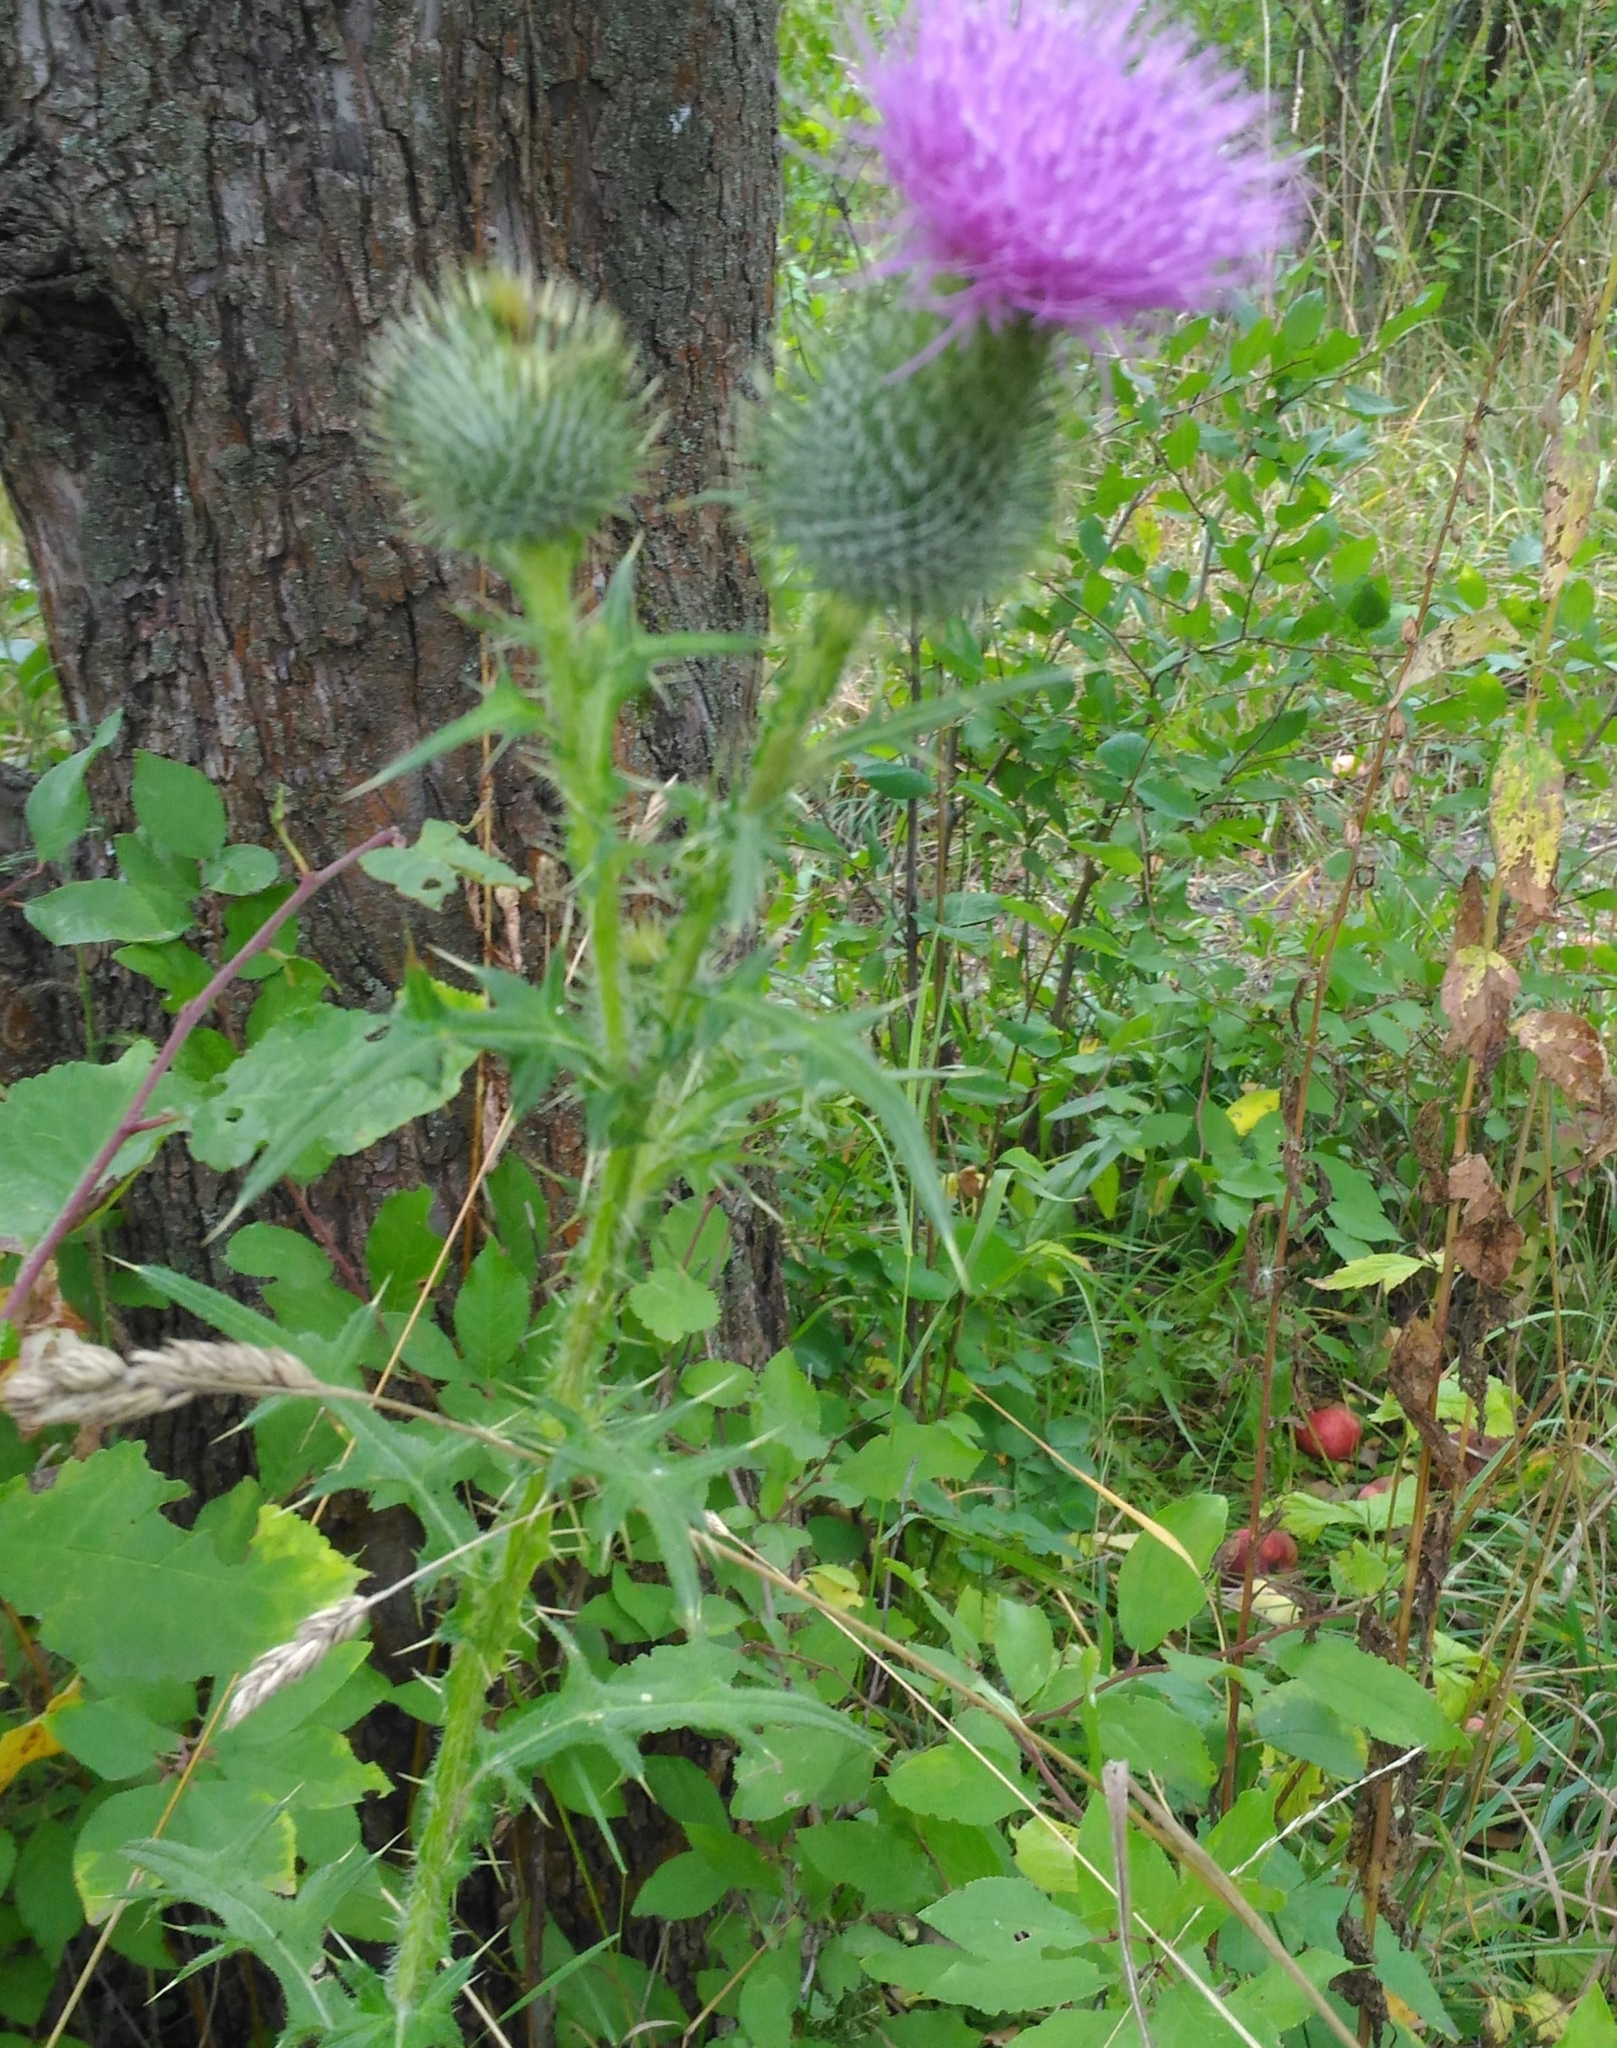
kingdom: Plantae
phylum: Tracheophyta
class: Magnoliopsida
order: Asterales
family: Asteraceae
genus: Cirsium
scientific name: Cirsium vulgare
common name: Bull thistle
